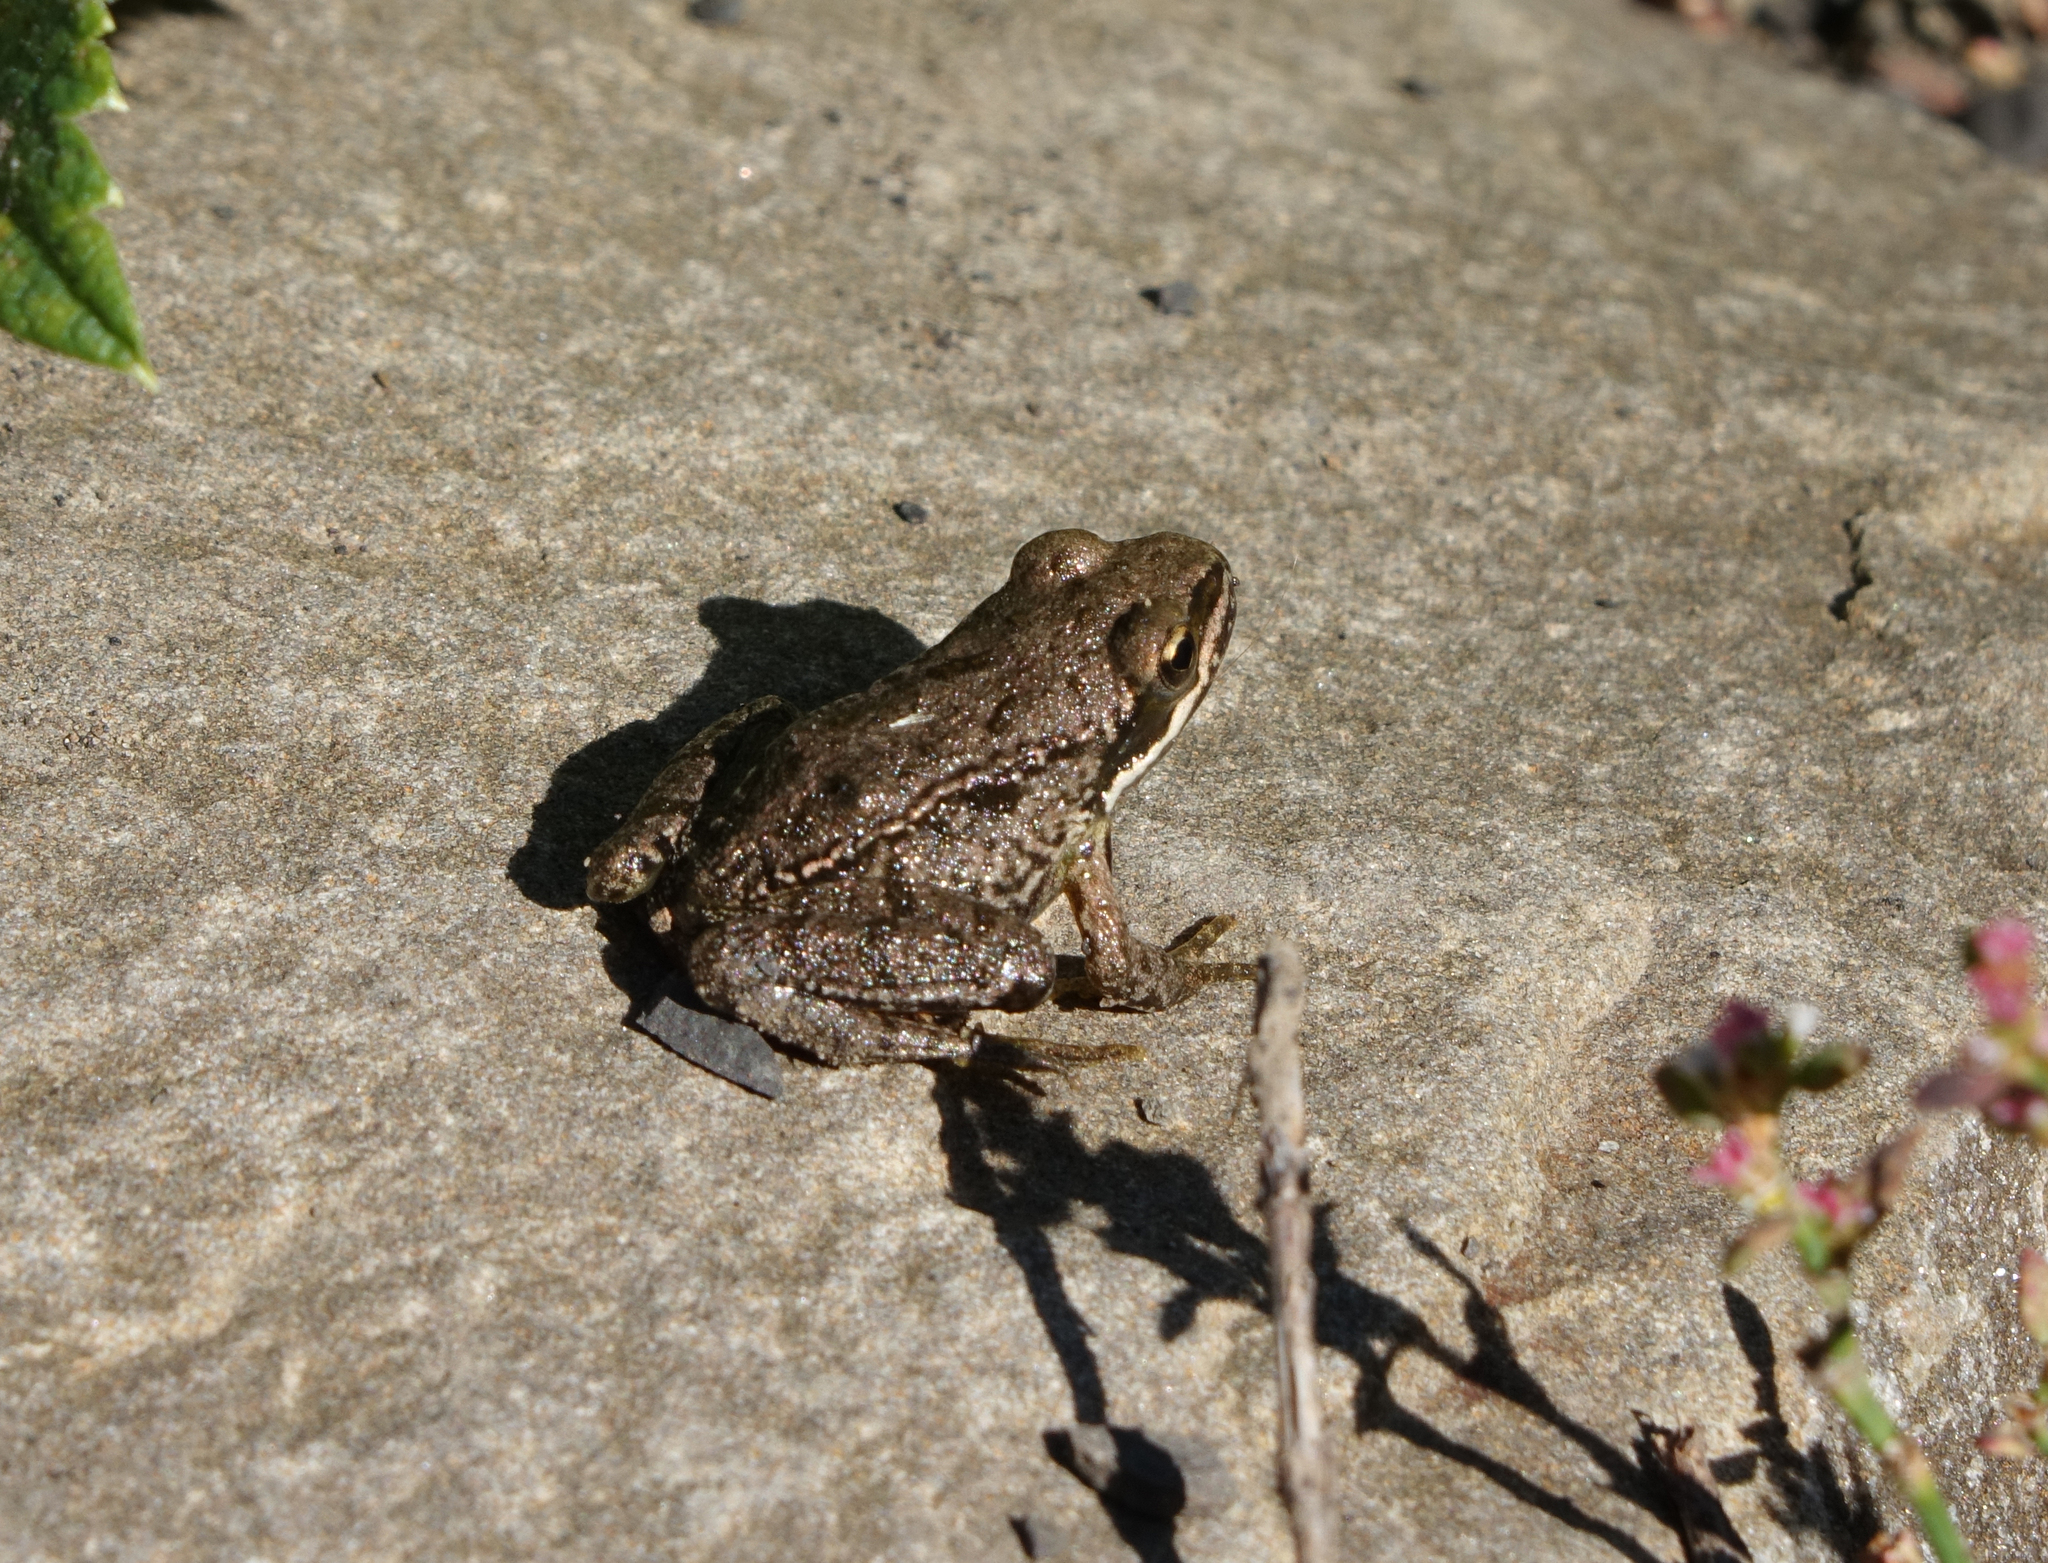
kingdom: Animalia
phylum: Chordata
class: Amphibia
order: Anura
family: Ranidae
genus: Rana
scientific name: Rana macrocnemis
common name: Banded frog
